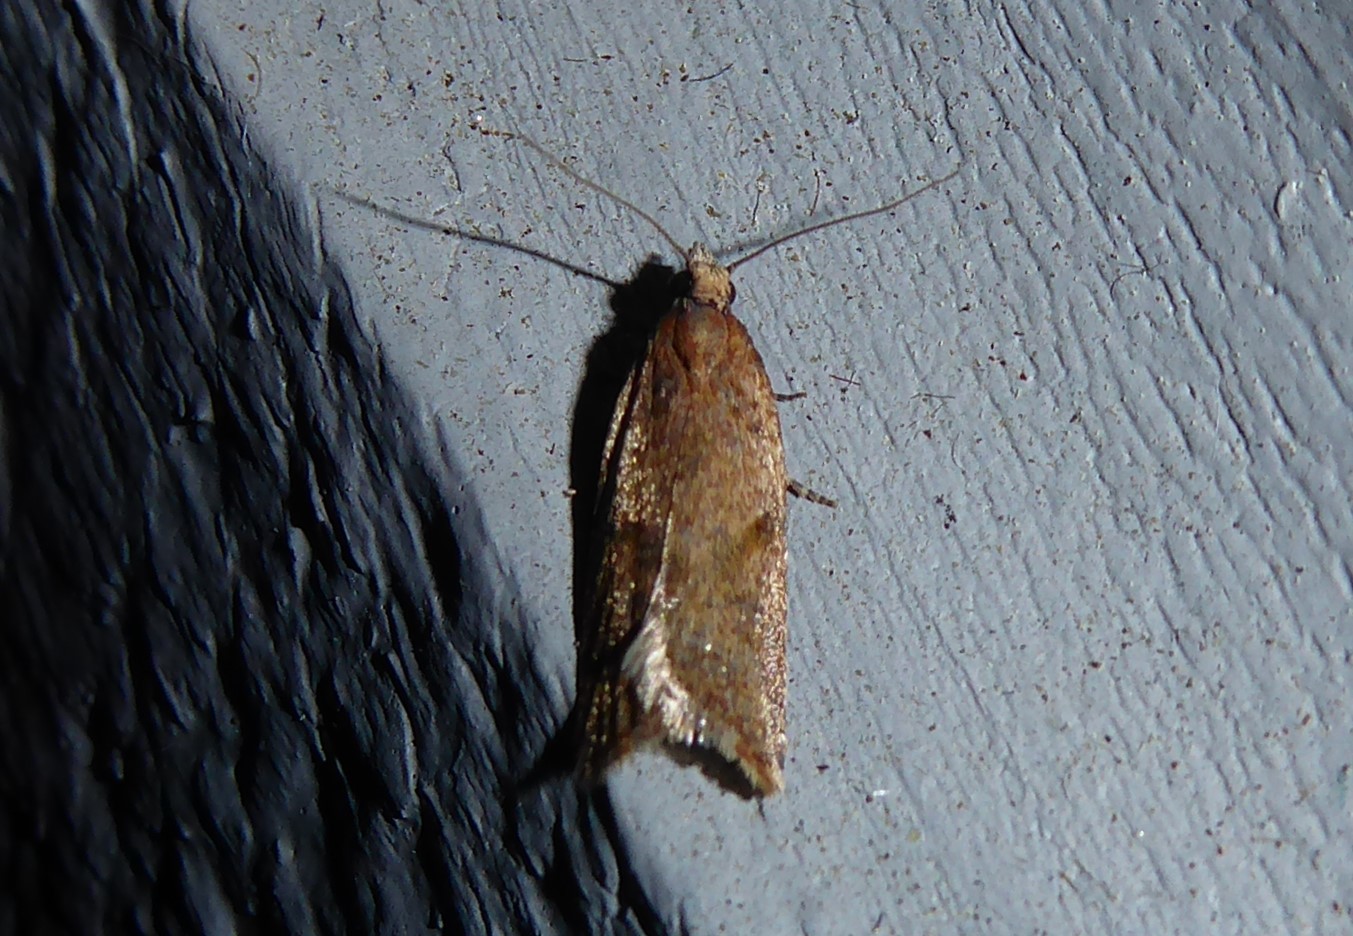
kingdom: Animalia
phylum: Arthropoda
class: Insecta
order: Lepidoptera
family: Tortricidae
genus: Capua
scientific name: Capua semiferana
